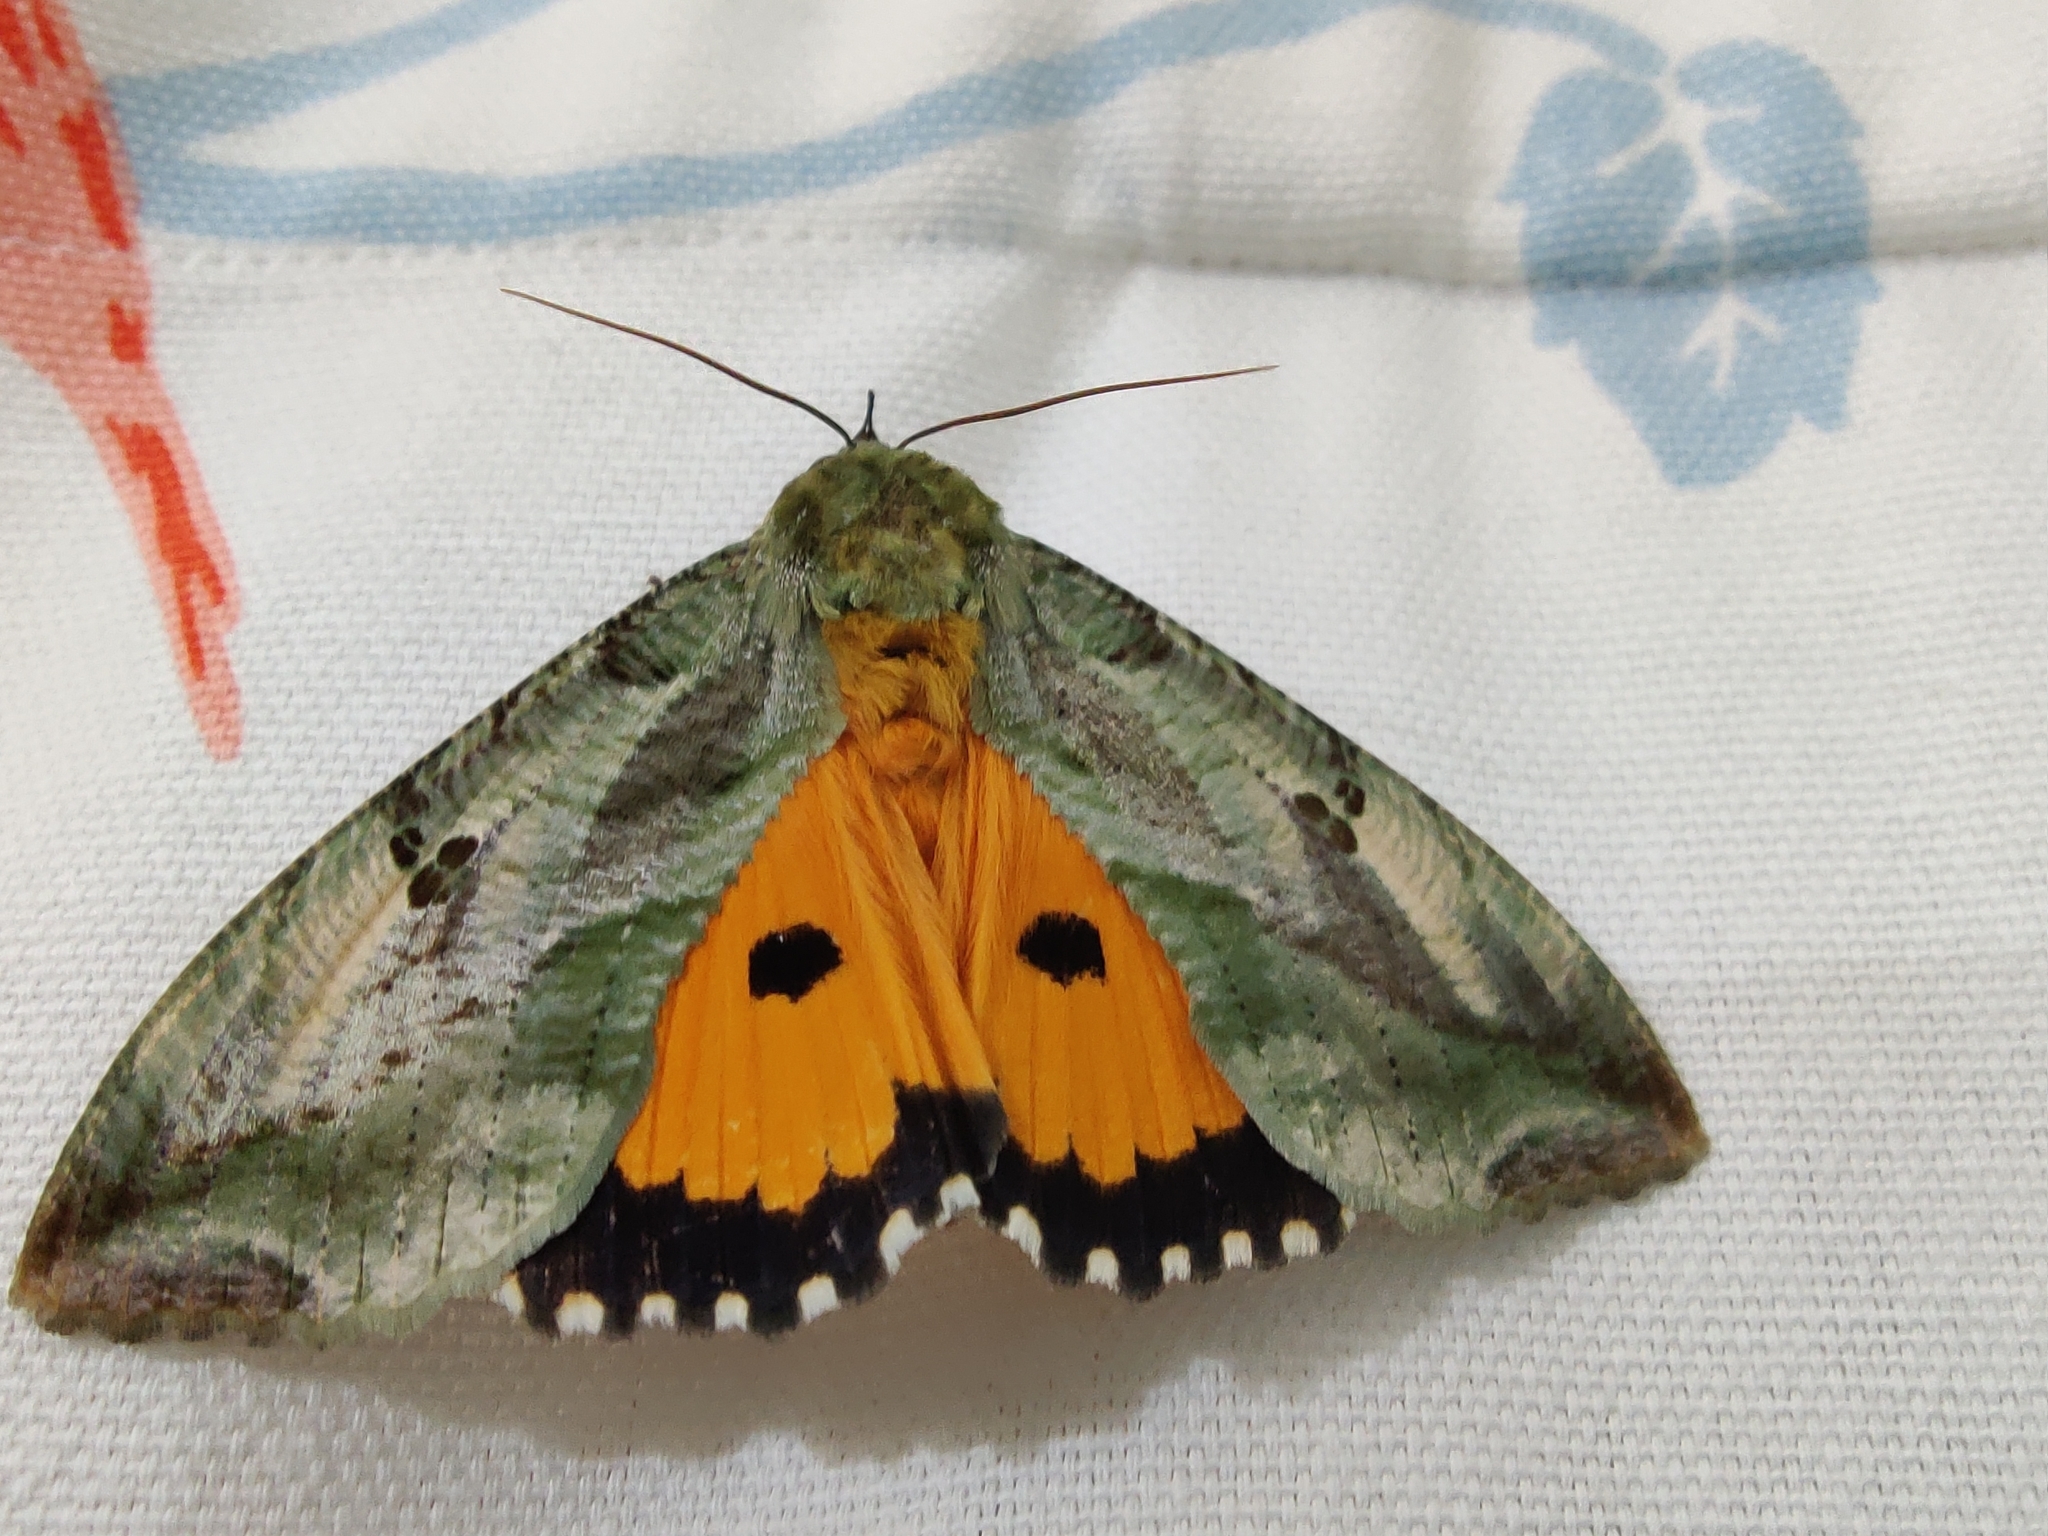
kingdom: Animalia
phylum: Arthropoda
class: Insecta
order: Lepidoptera
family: Erebidae
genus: Eudocima
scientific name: Eudocima materna
